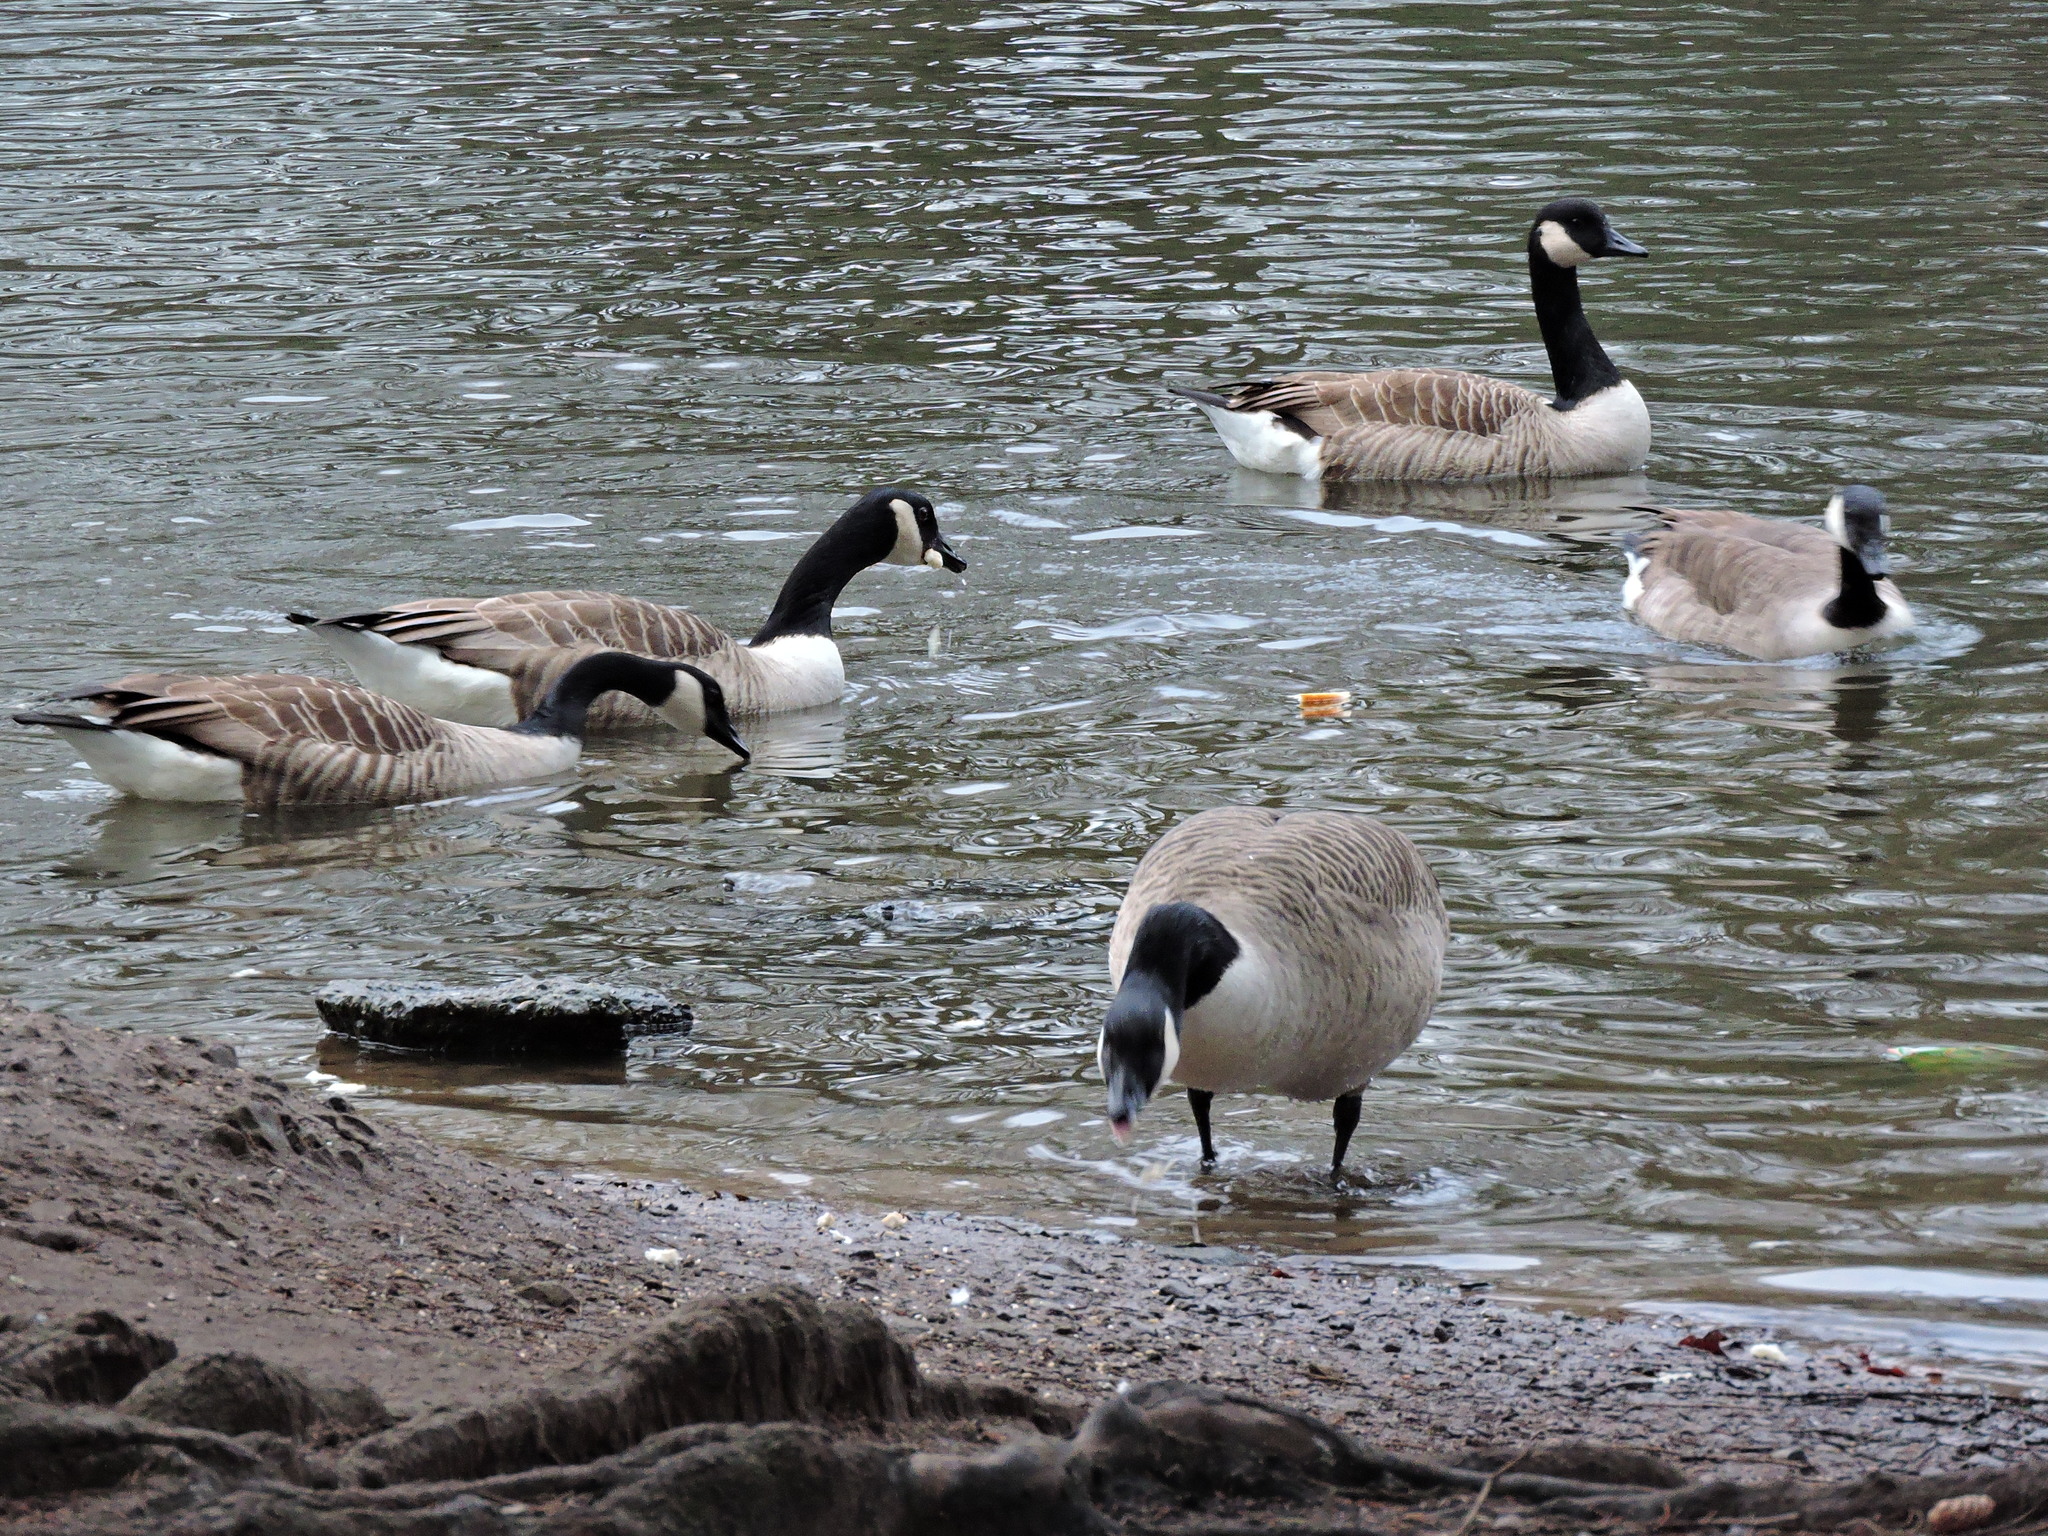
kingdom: Animalia
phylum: Chordata
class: Aves
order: Anseriformes
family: Anatidae
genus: Branta
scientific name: Branta canadensis
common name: Canada goose
